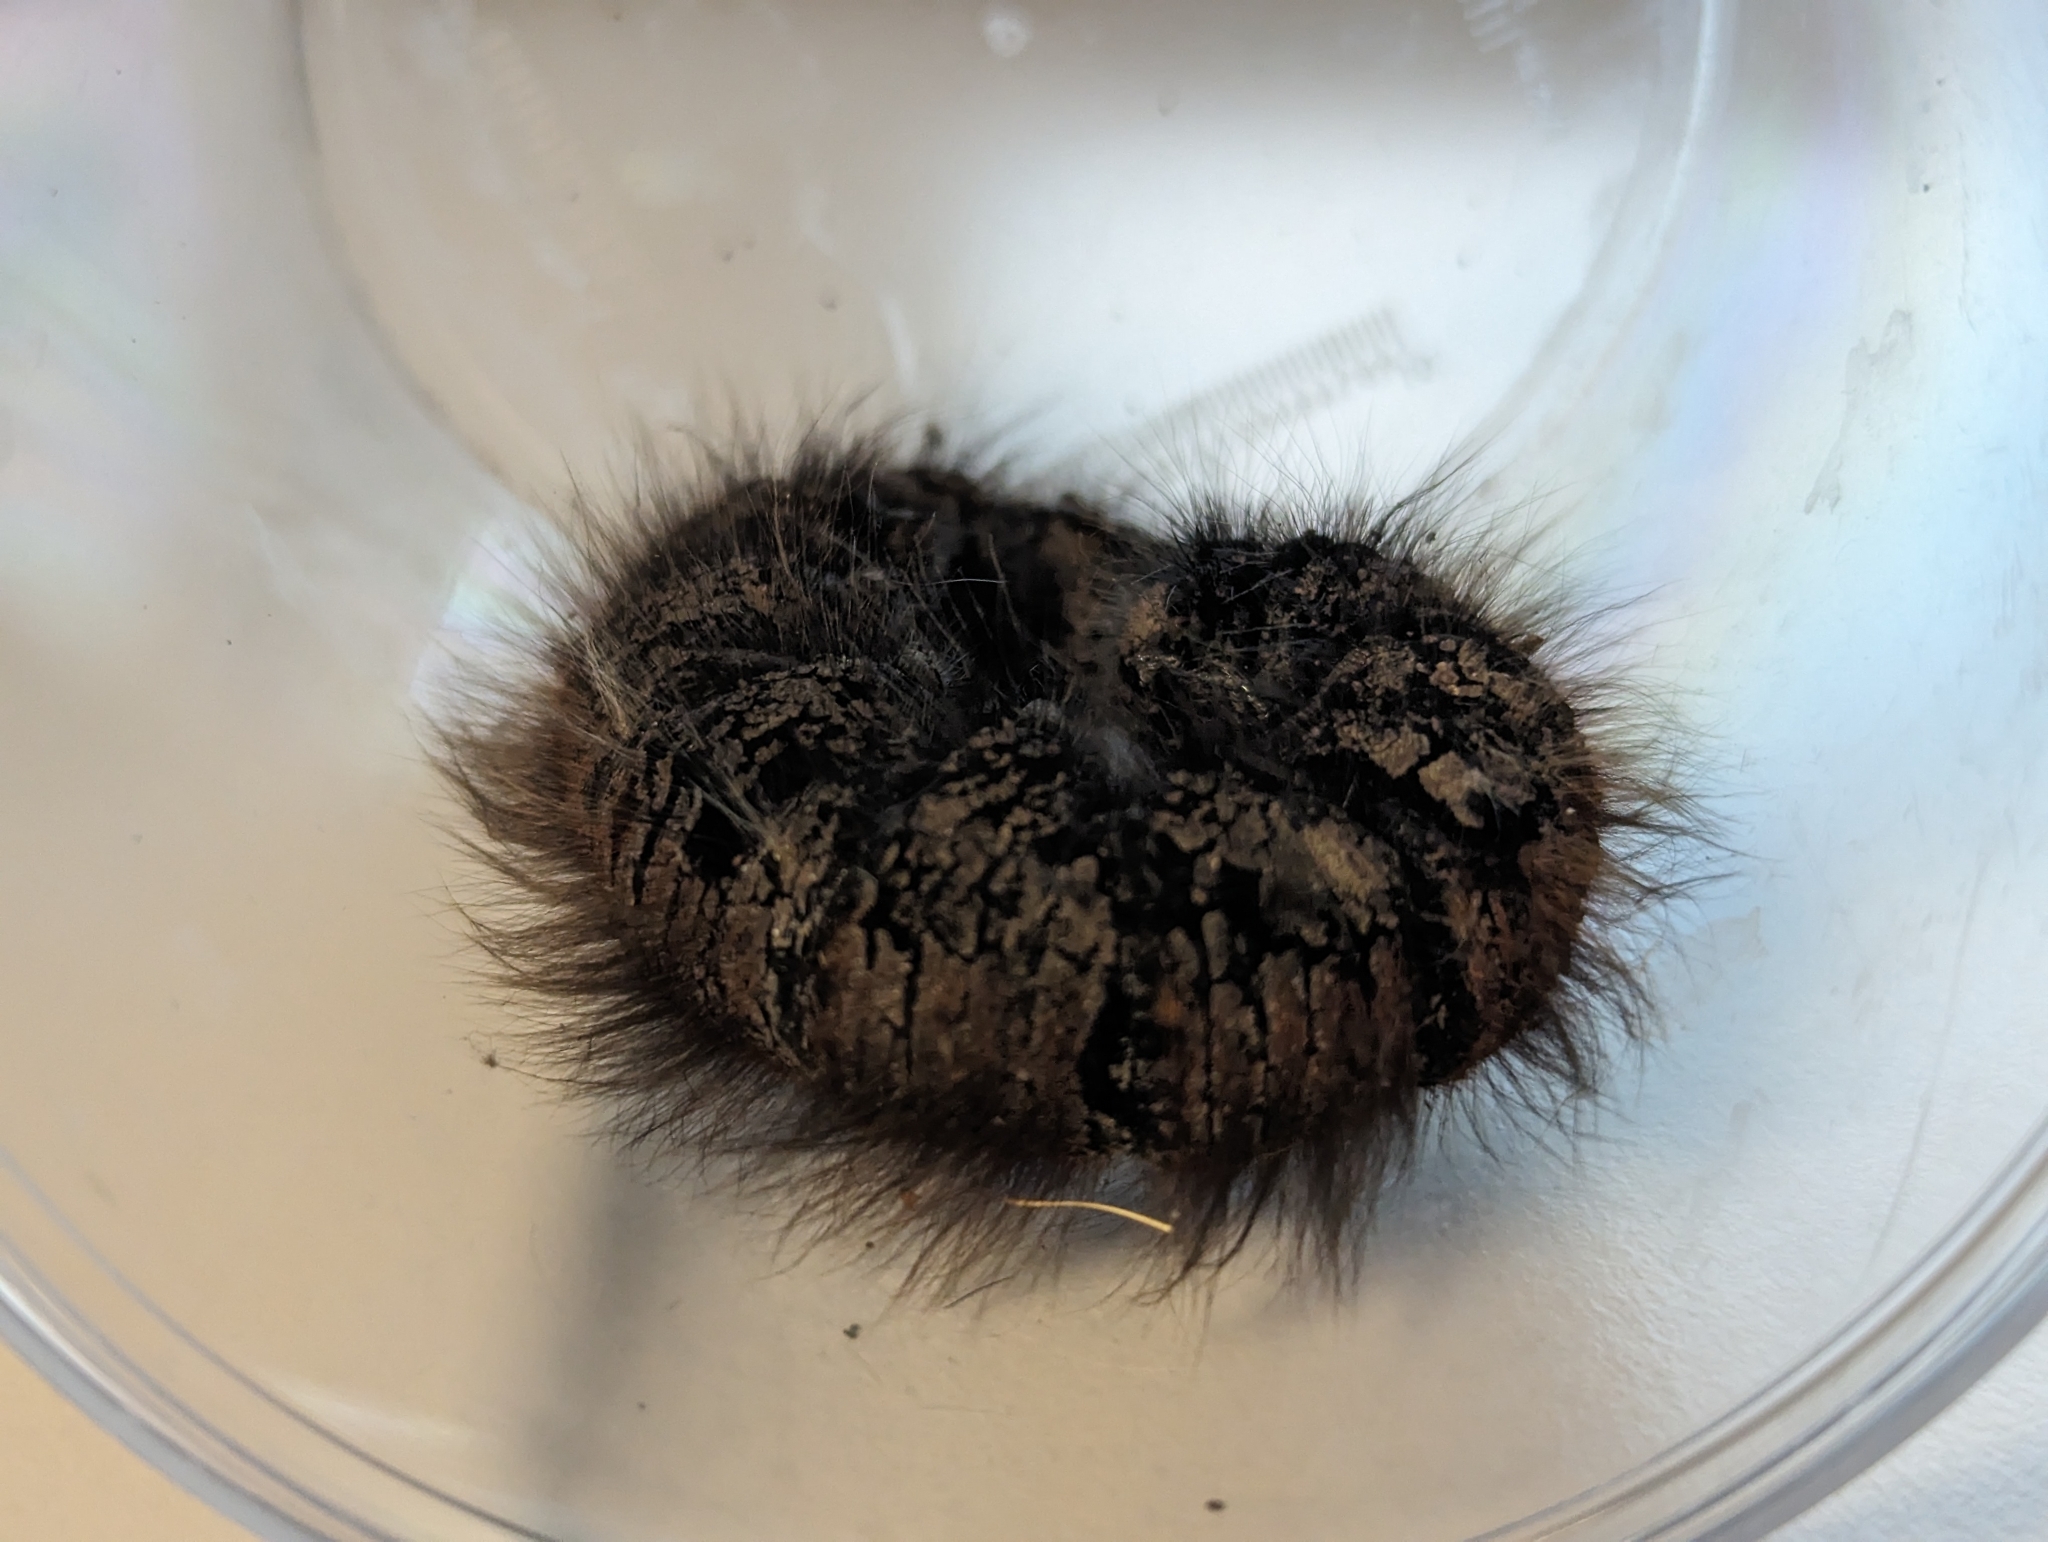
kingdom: Animalia
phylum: Arthropoda
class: Insecta
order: Lepidoptera
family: Lasiocampidae
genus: Macrothylacia
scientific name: Macrothylacia rubi
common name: Fox moth
